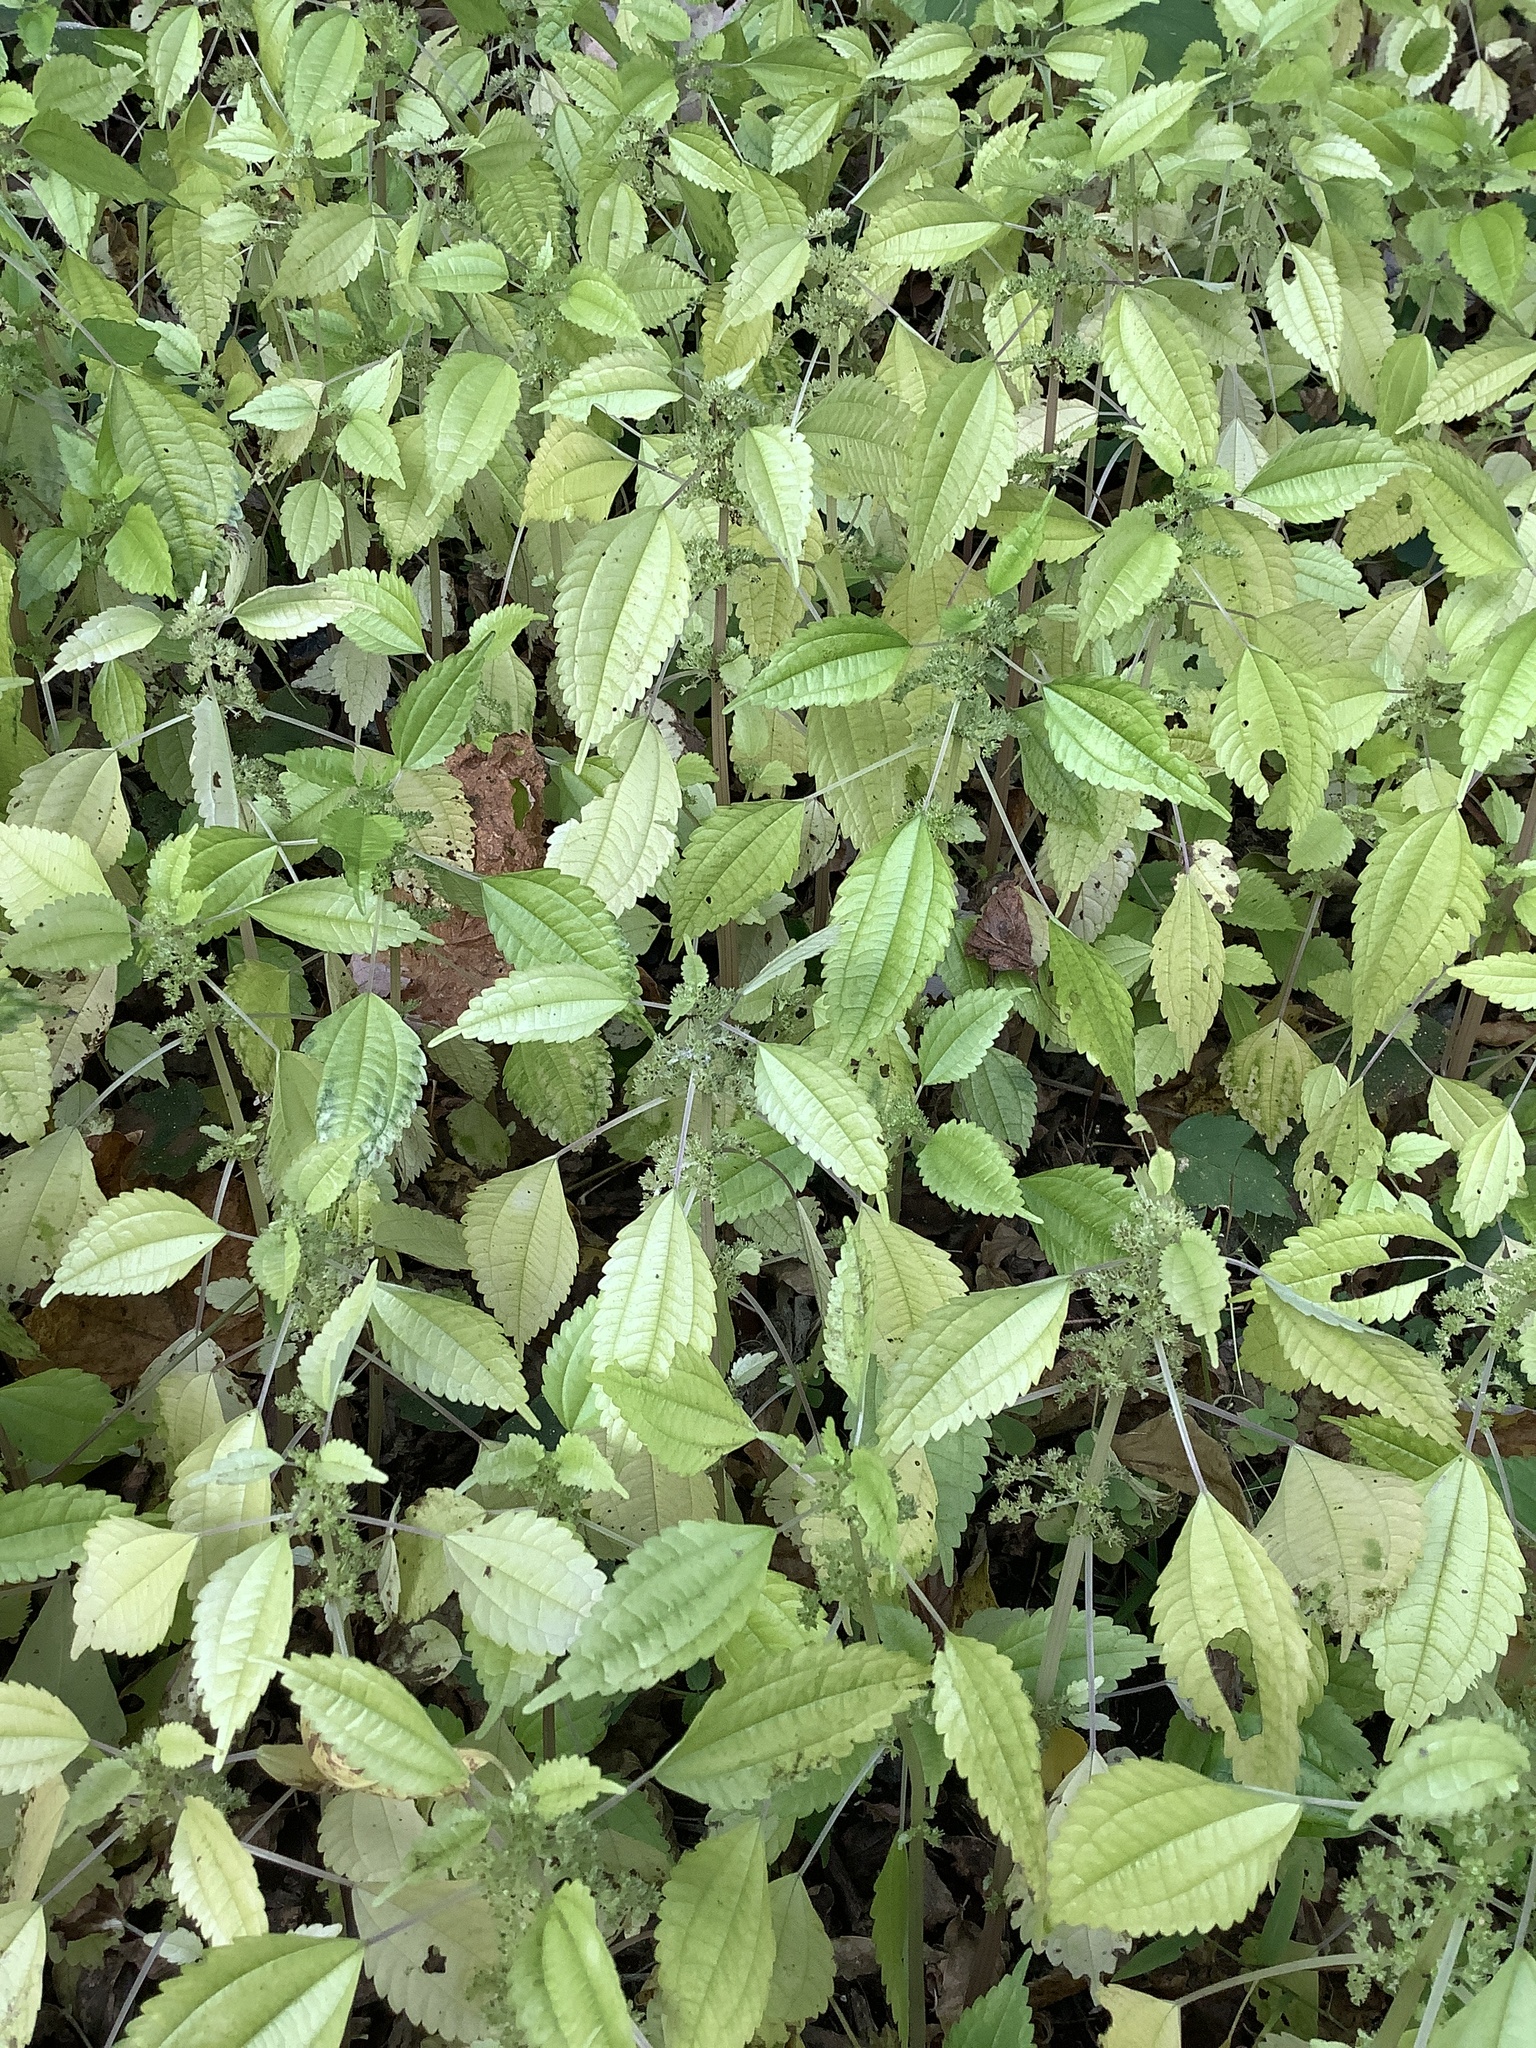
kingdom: Plantae
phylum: Tracheophyta
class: Magnoliopsida
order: Rosales
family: Urticaceae
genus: Pilea
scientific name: Pilea pumila
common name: Clearweed
